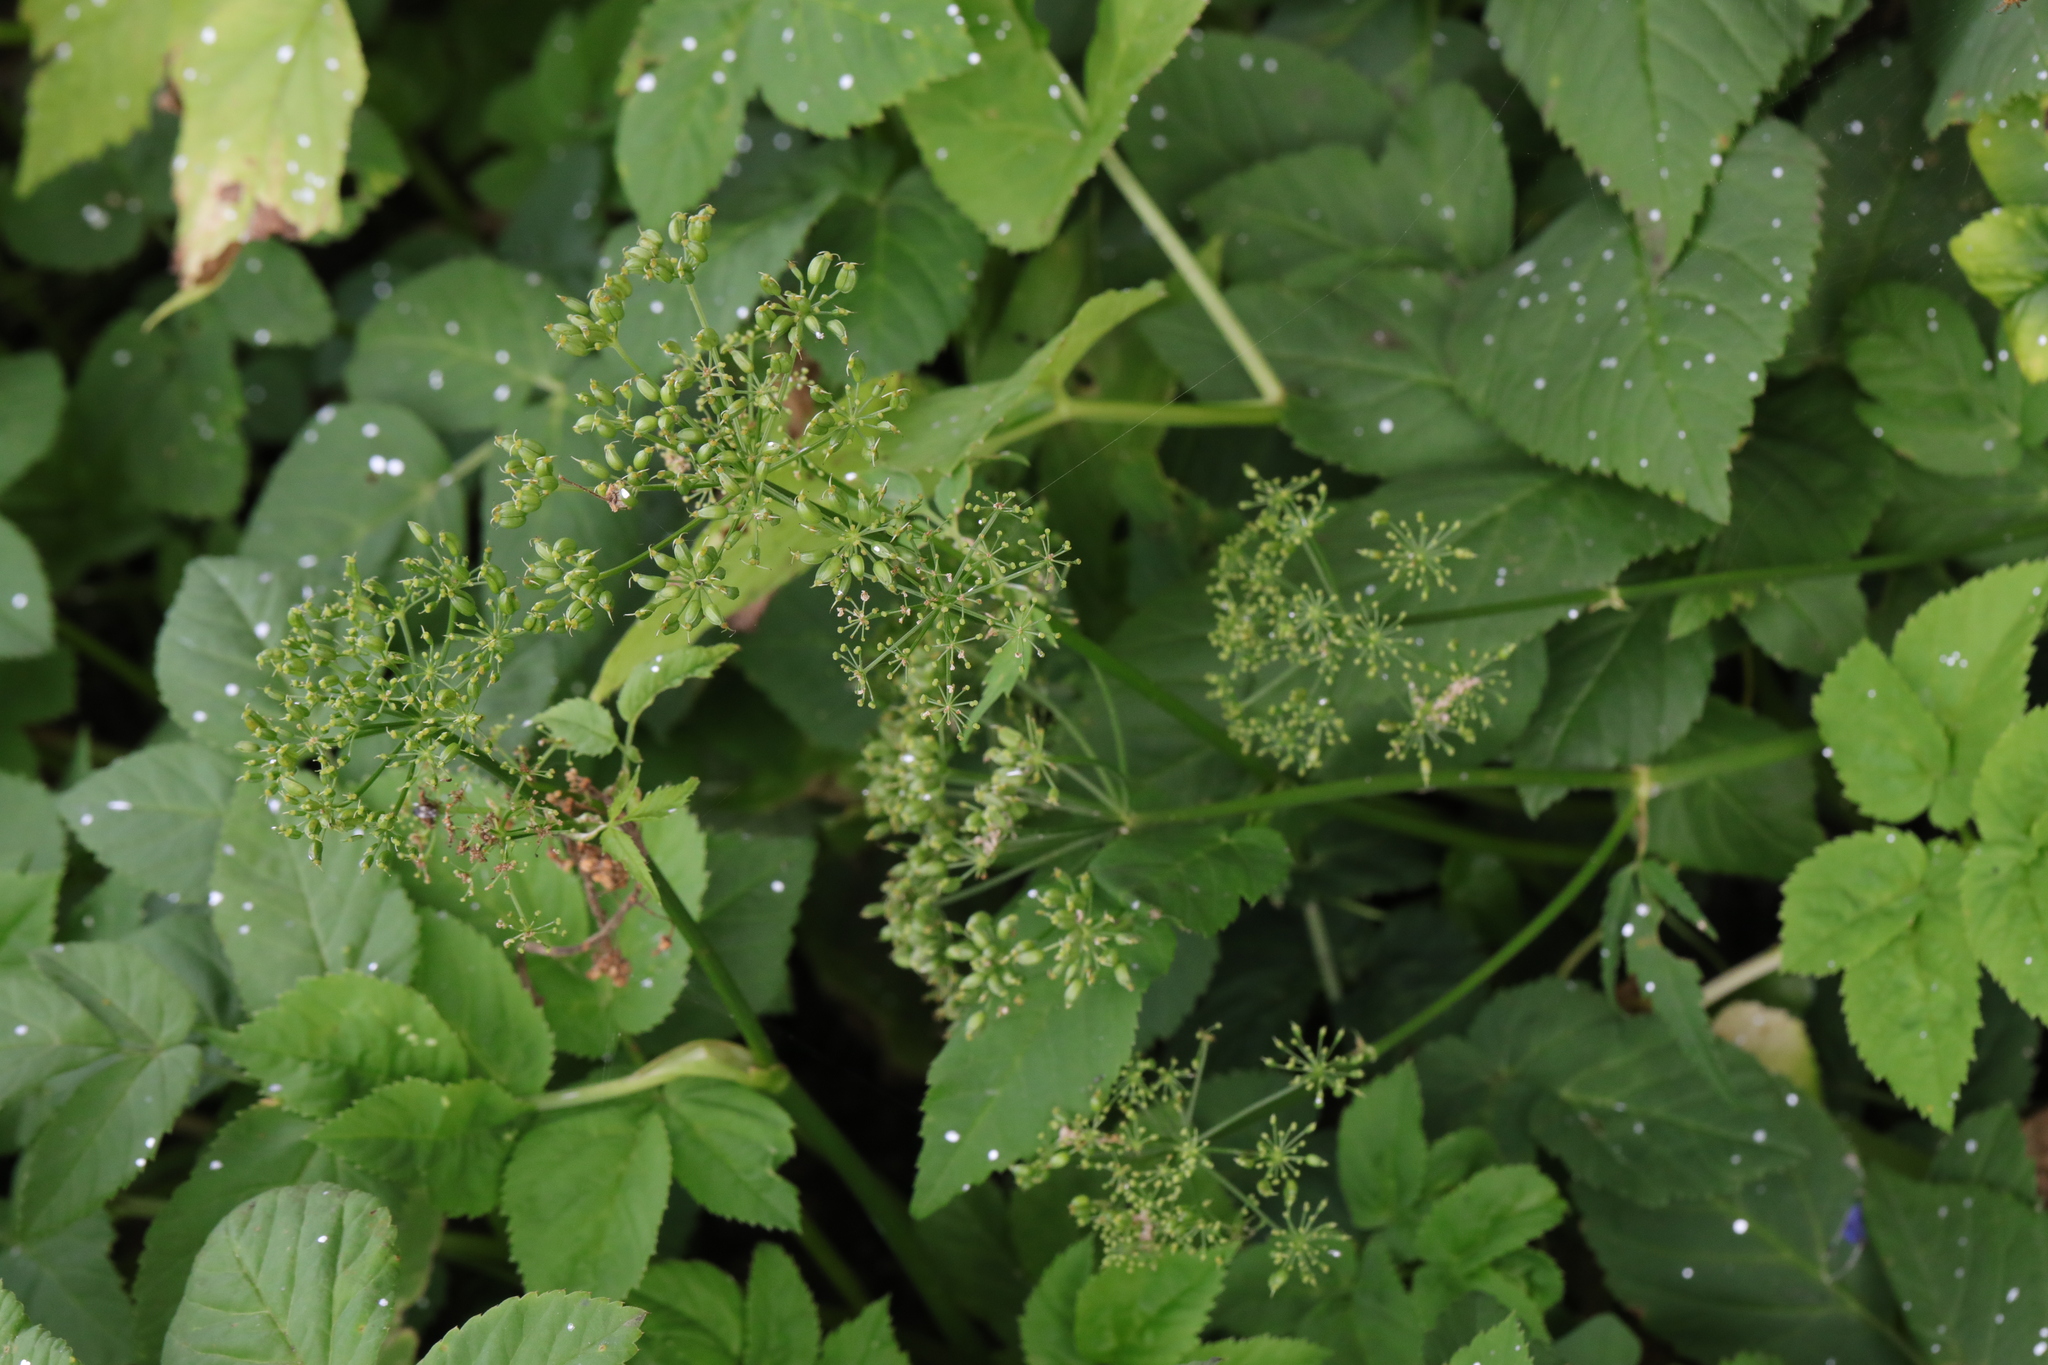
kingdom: Plantae
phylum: Tracheophyta
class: Magnoliopsida
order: Apiales
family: Apiaceae
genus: Aegopodium
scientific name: Aegopodium podagraria
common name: Ground-elder
